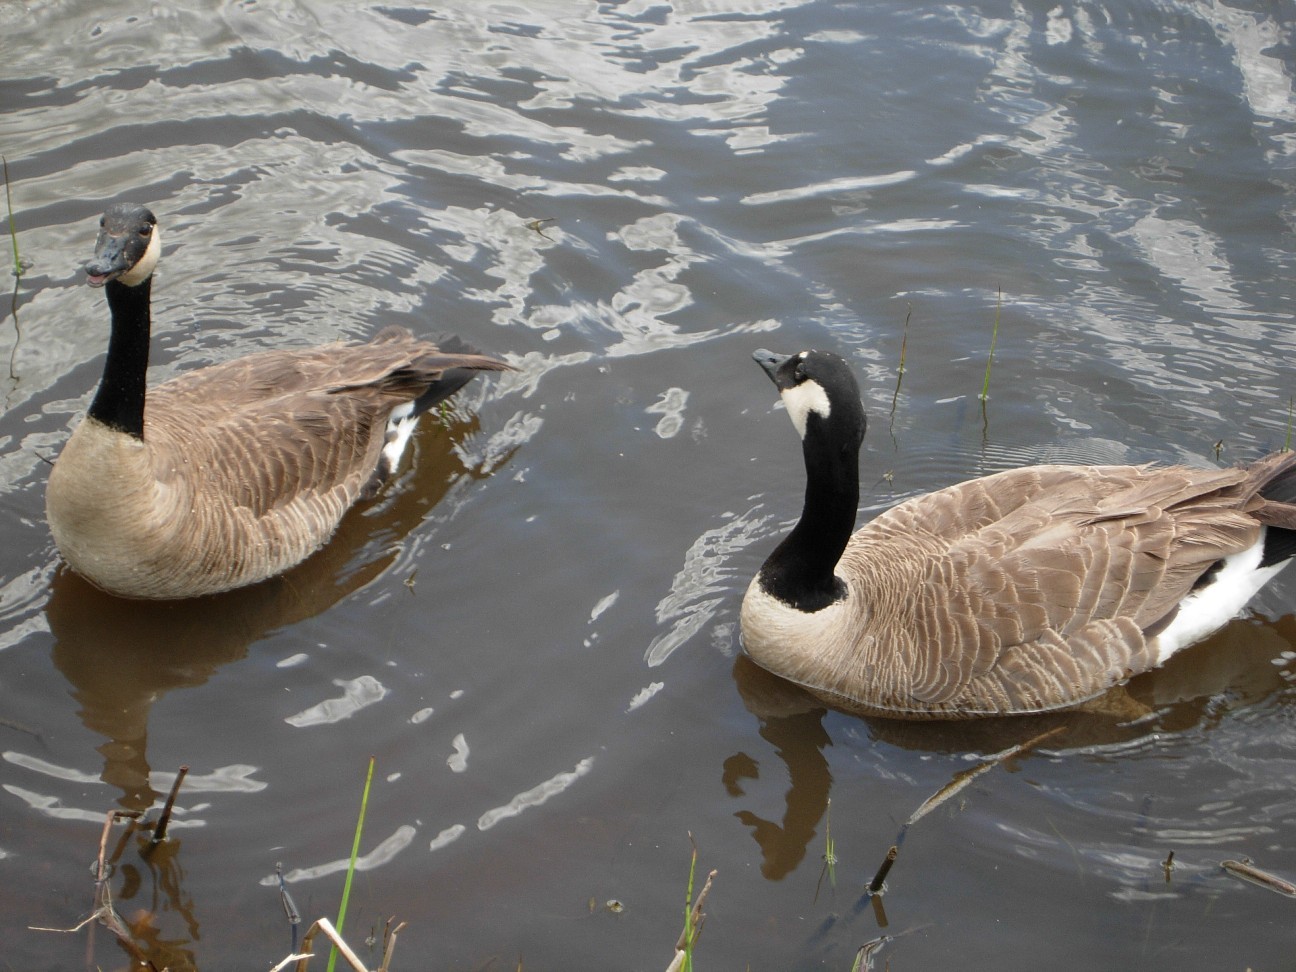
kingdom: Animalia
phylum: Chordata
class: Aves
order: Anseriformes
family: Anatidae
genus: Branta
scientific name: Branta canadensis
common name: Canada goose
